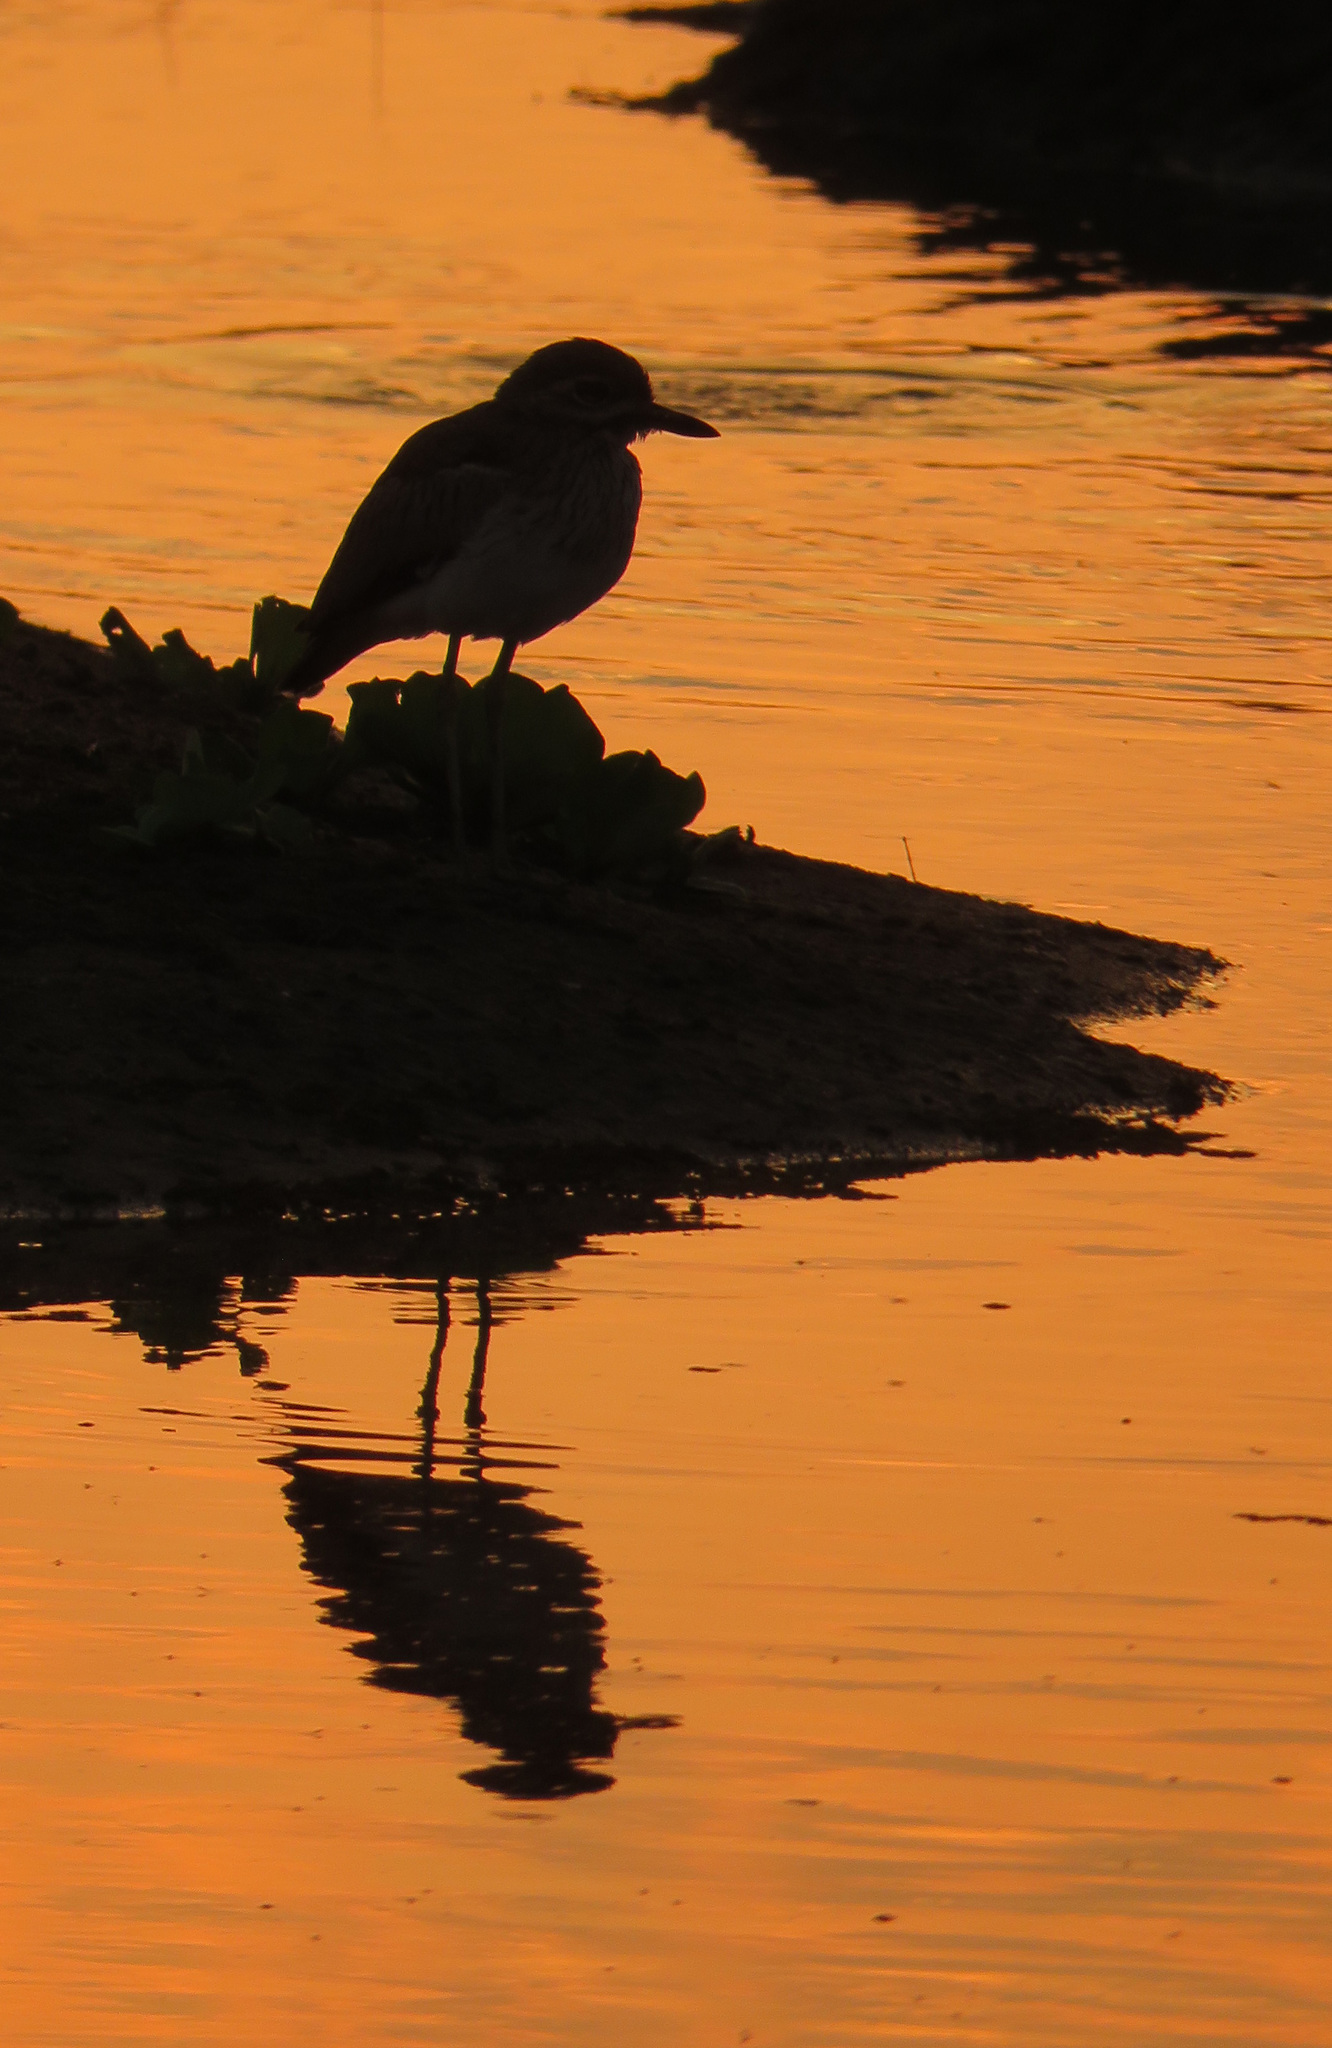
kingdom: Animalia
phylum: Chordata
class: Aves
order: Charadriiformes
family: Burhinidae
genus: Burhinus
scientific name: Burhinus vermiculatus
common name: Water thick-knee
